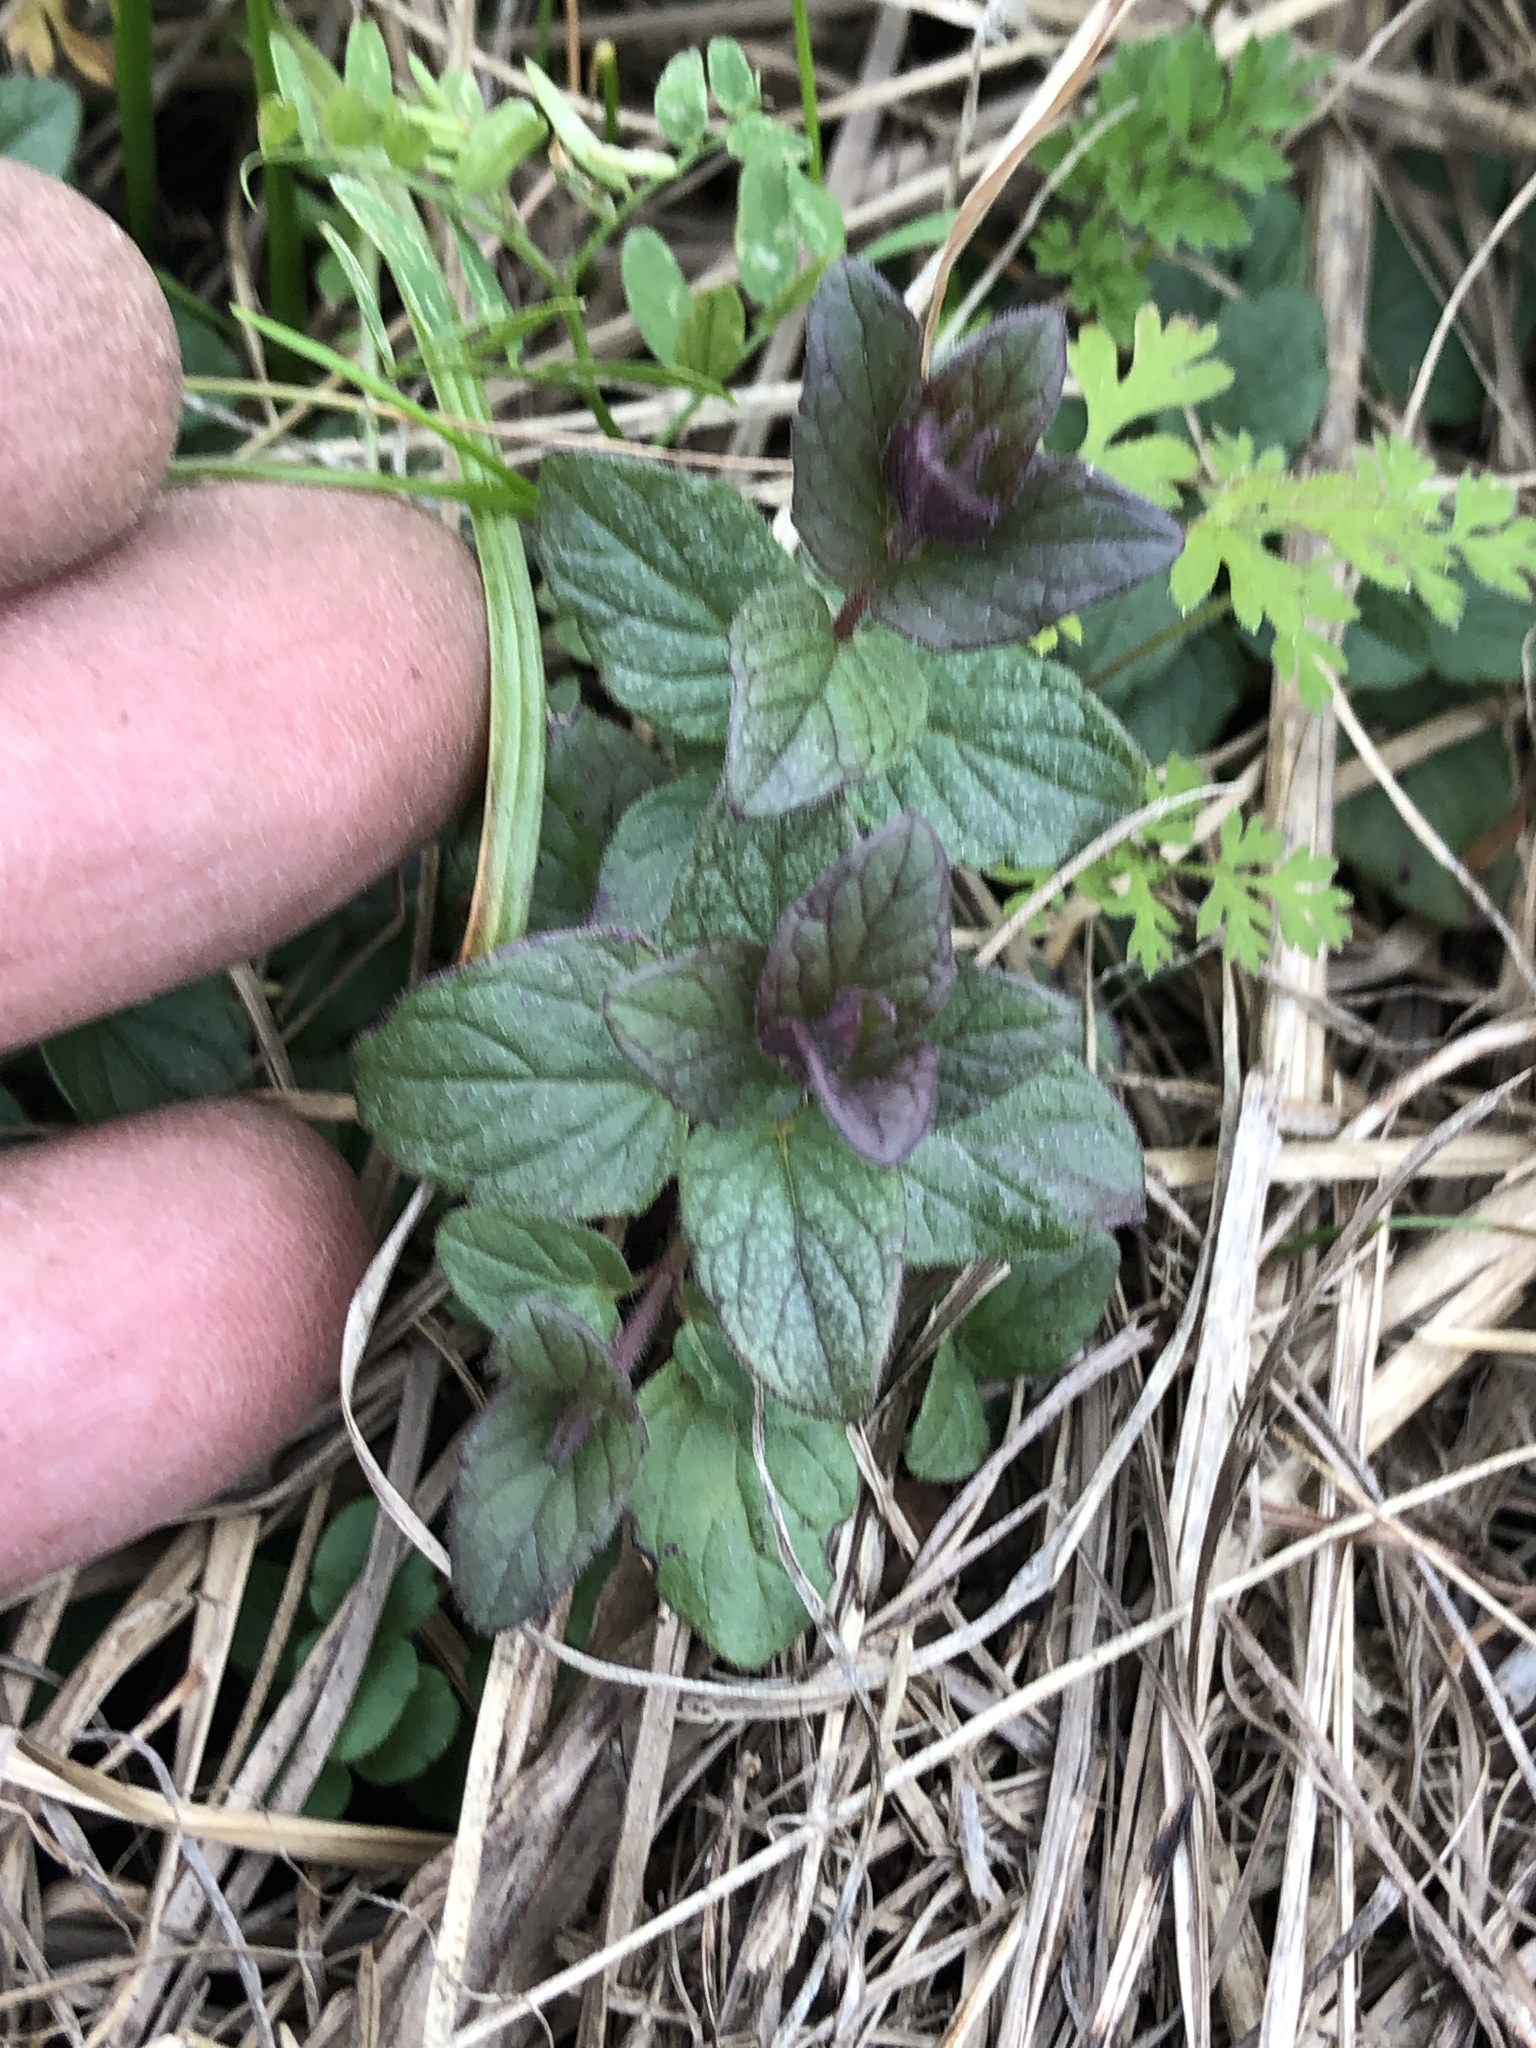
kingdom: Plantae
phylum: Tracheophyta
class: Magnoliopsida
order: Lamiales
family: Lamiaceae
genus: Scutellaria
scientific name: Scutellaria parvula
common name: Little scullcap
